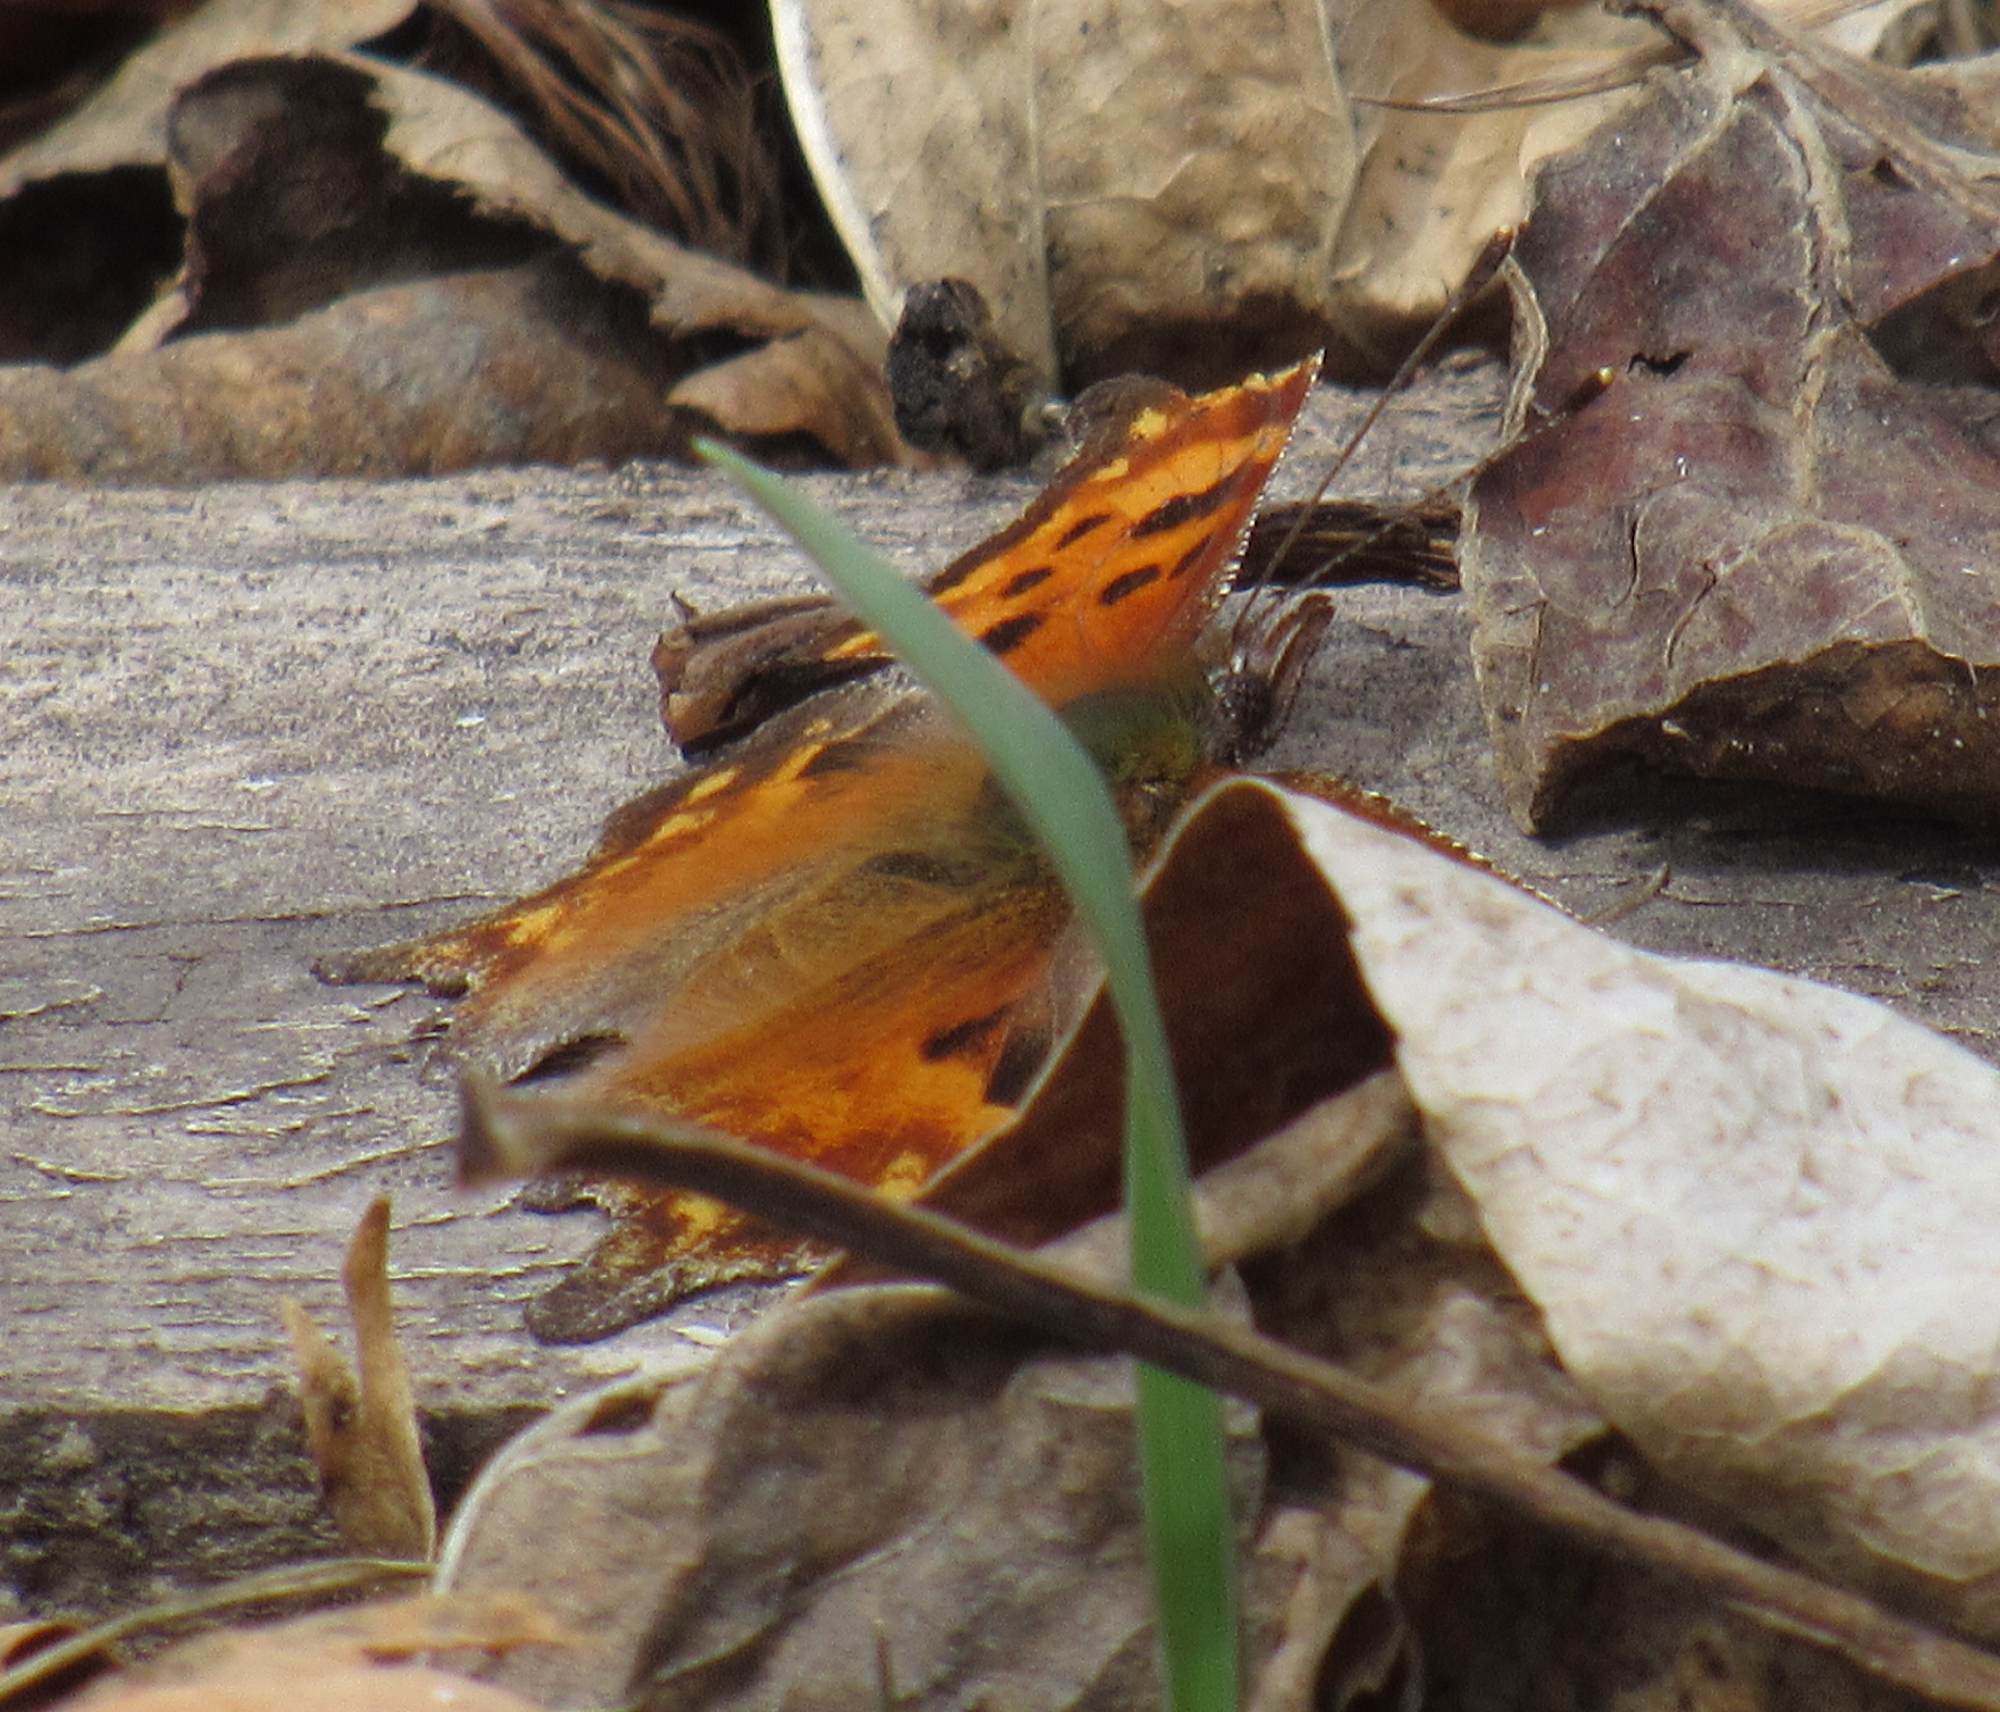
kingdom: Animalia
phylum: Arthropoda
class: Insecta
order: Lepidoptera
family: Nymphalidae
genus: Polygonia
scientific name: Polygonia oreas
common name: Oreas comma
